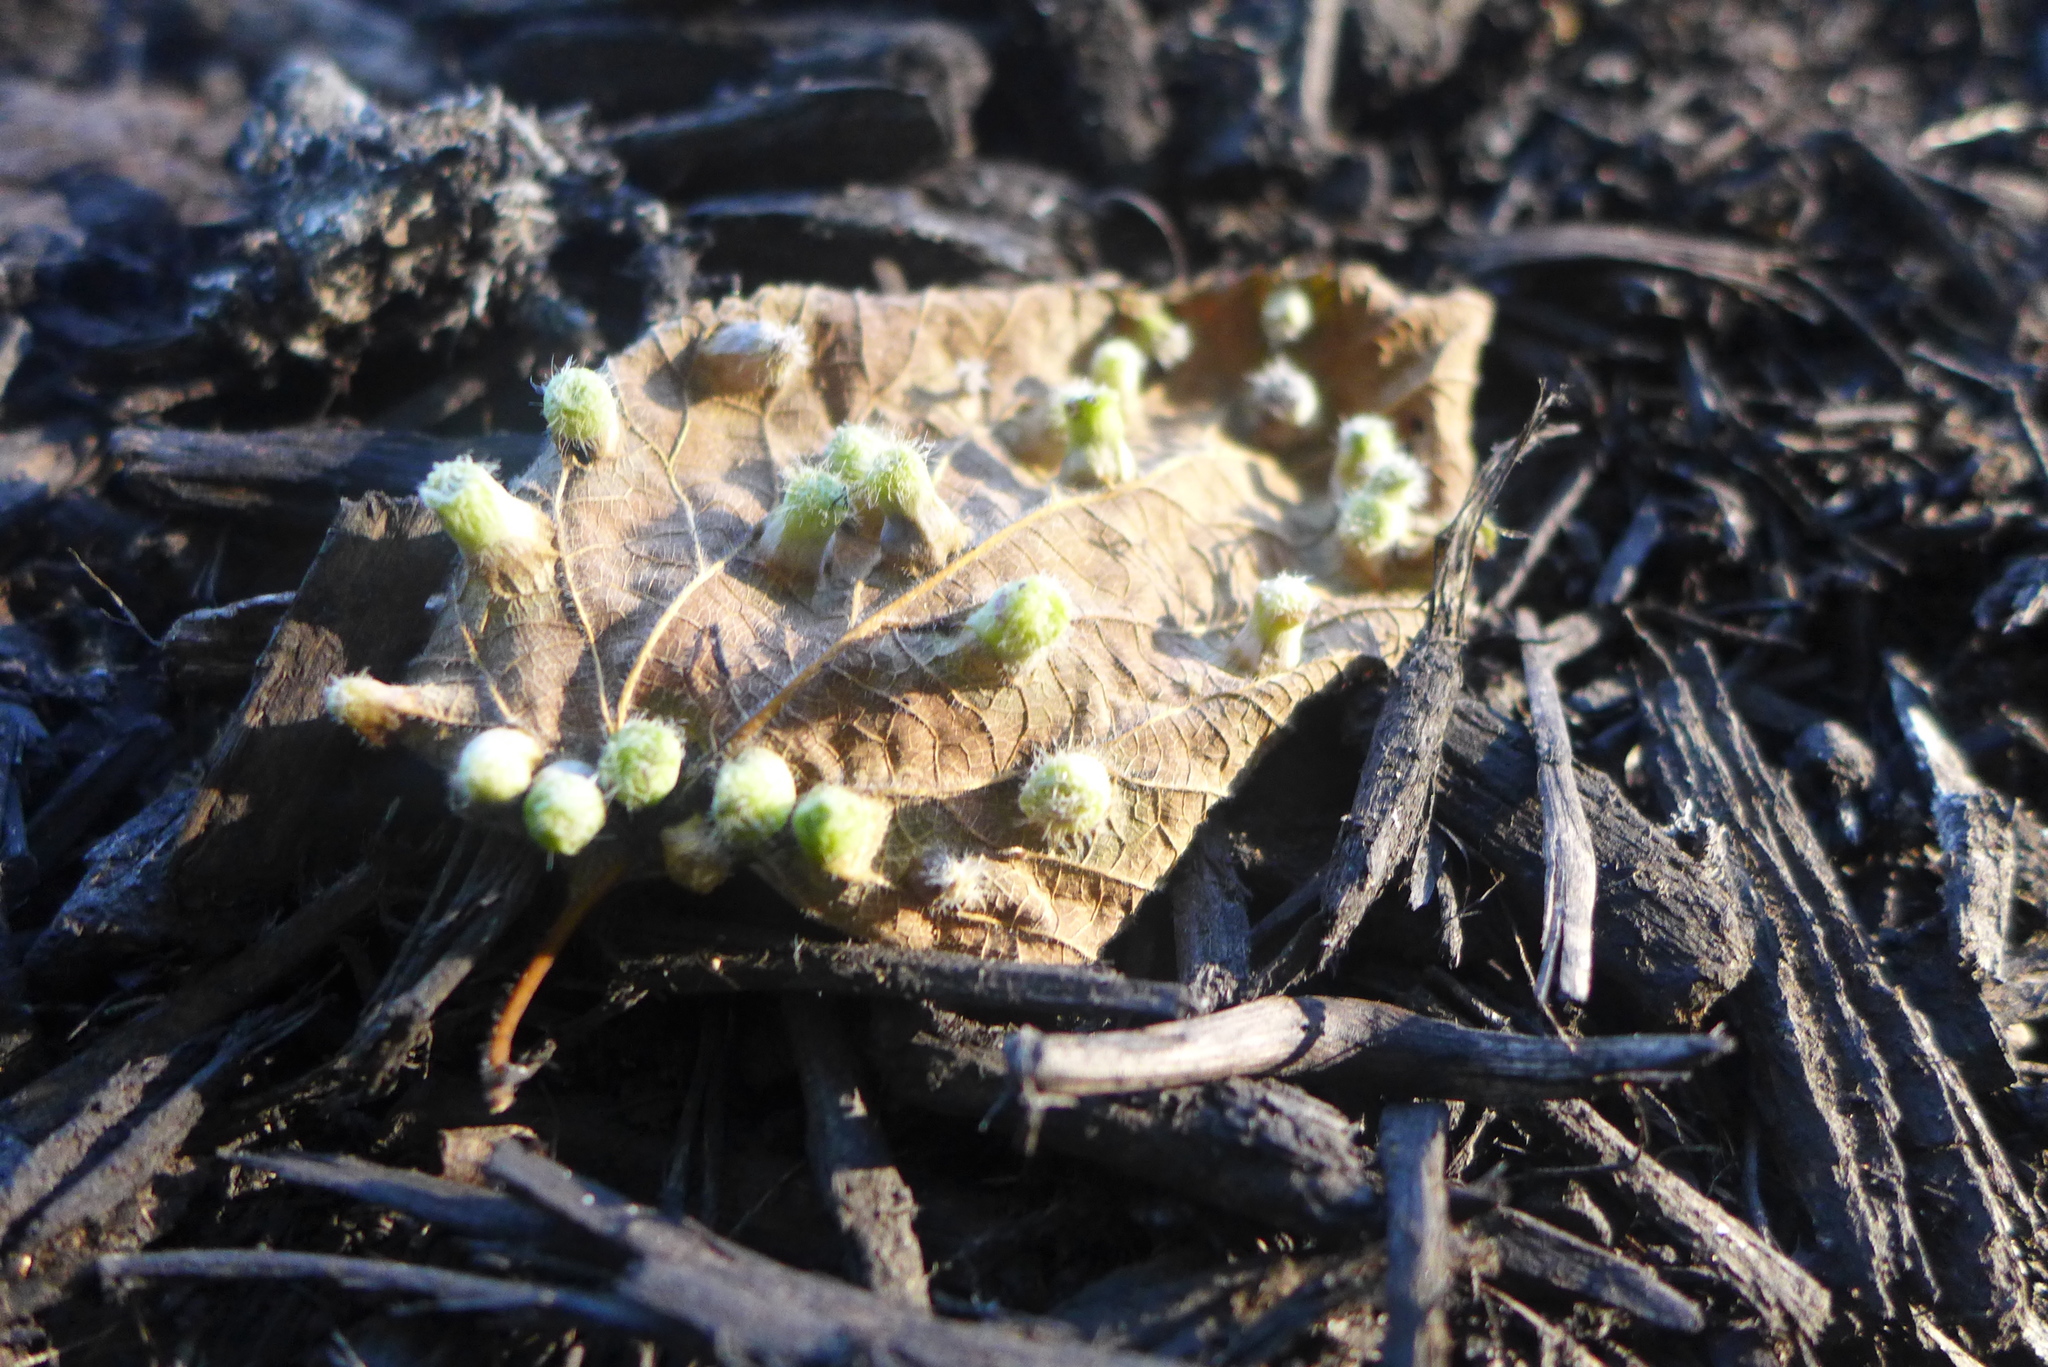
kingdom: Animalia
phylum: Arthropoda
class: Insecta
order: Hemiptera
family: Aphalaridae
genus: Pachypsylla
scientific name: Pachypsylla celtidismamma
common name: Hackberry nipplegall psyllid
